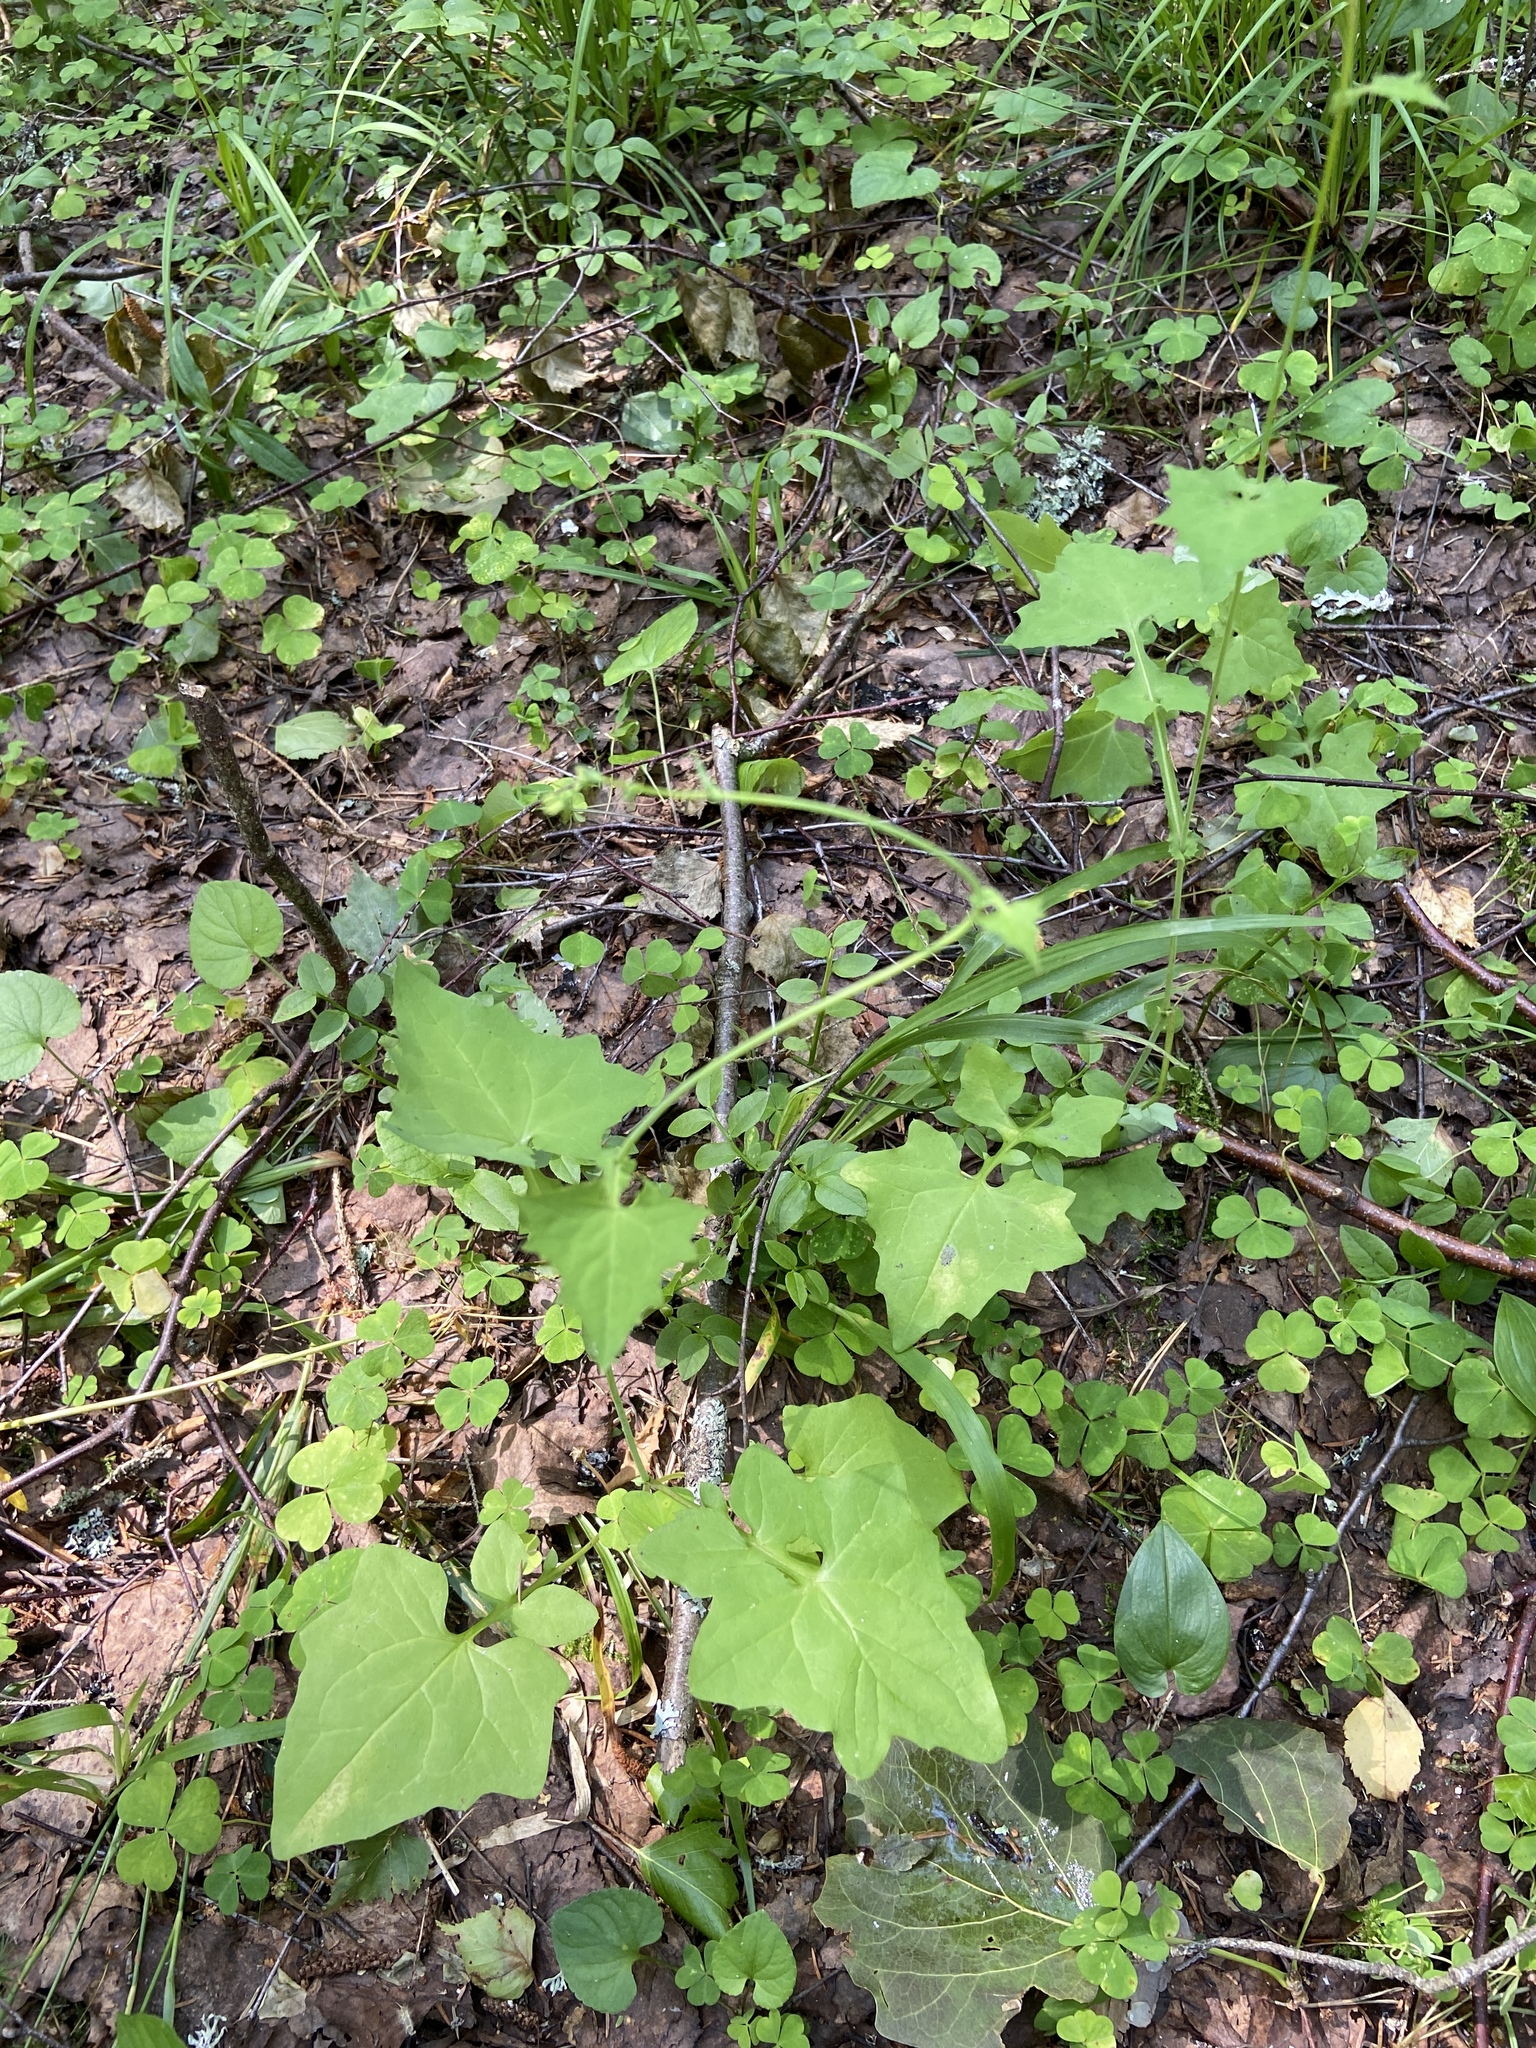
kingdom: Plantae
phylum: Tracheophyta
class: Magnoliopsida
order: Asterales
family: Asteraceae
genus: Mycelis
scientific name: Mycelis muralis
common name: Wall lettuce
